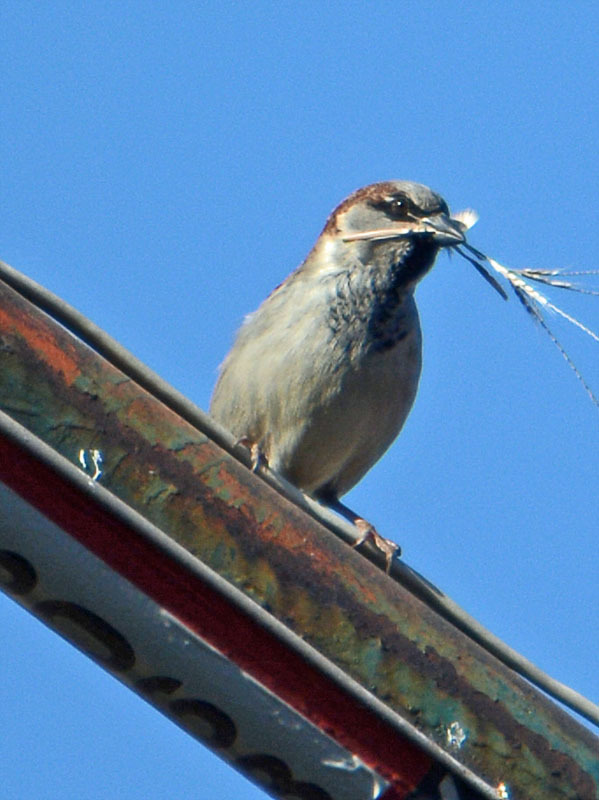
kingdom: Animalia
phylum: Chordata
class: Aves
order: Passeriformes
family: Passeridae
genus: Passer
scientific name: Passer domesticus
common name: House sparrow
